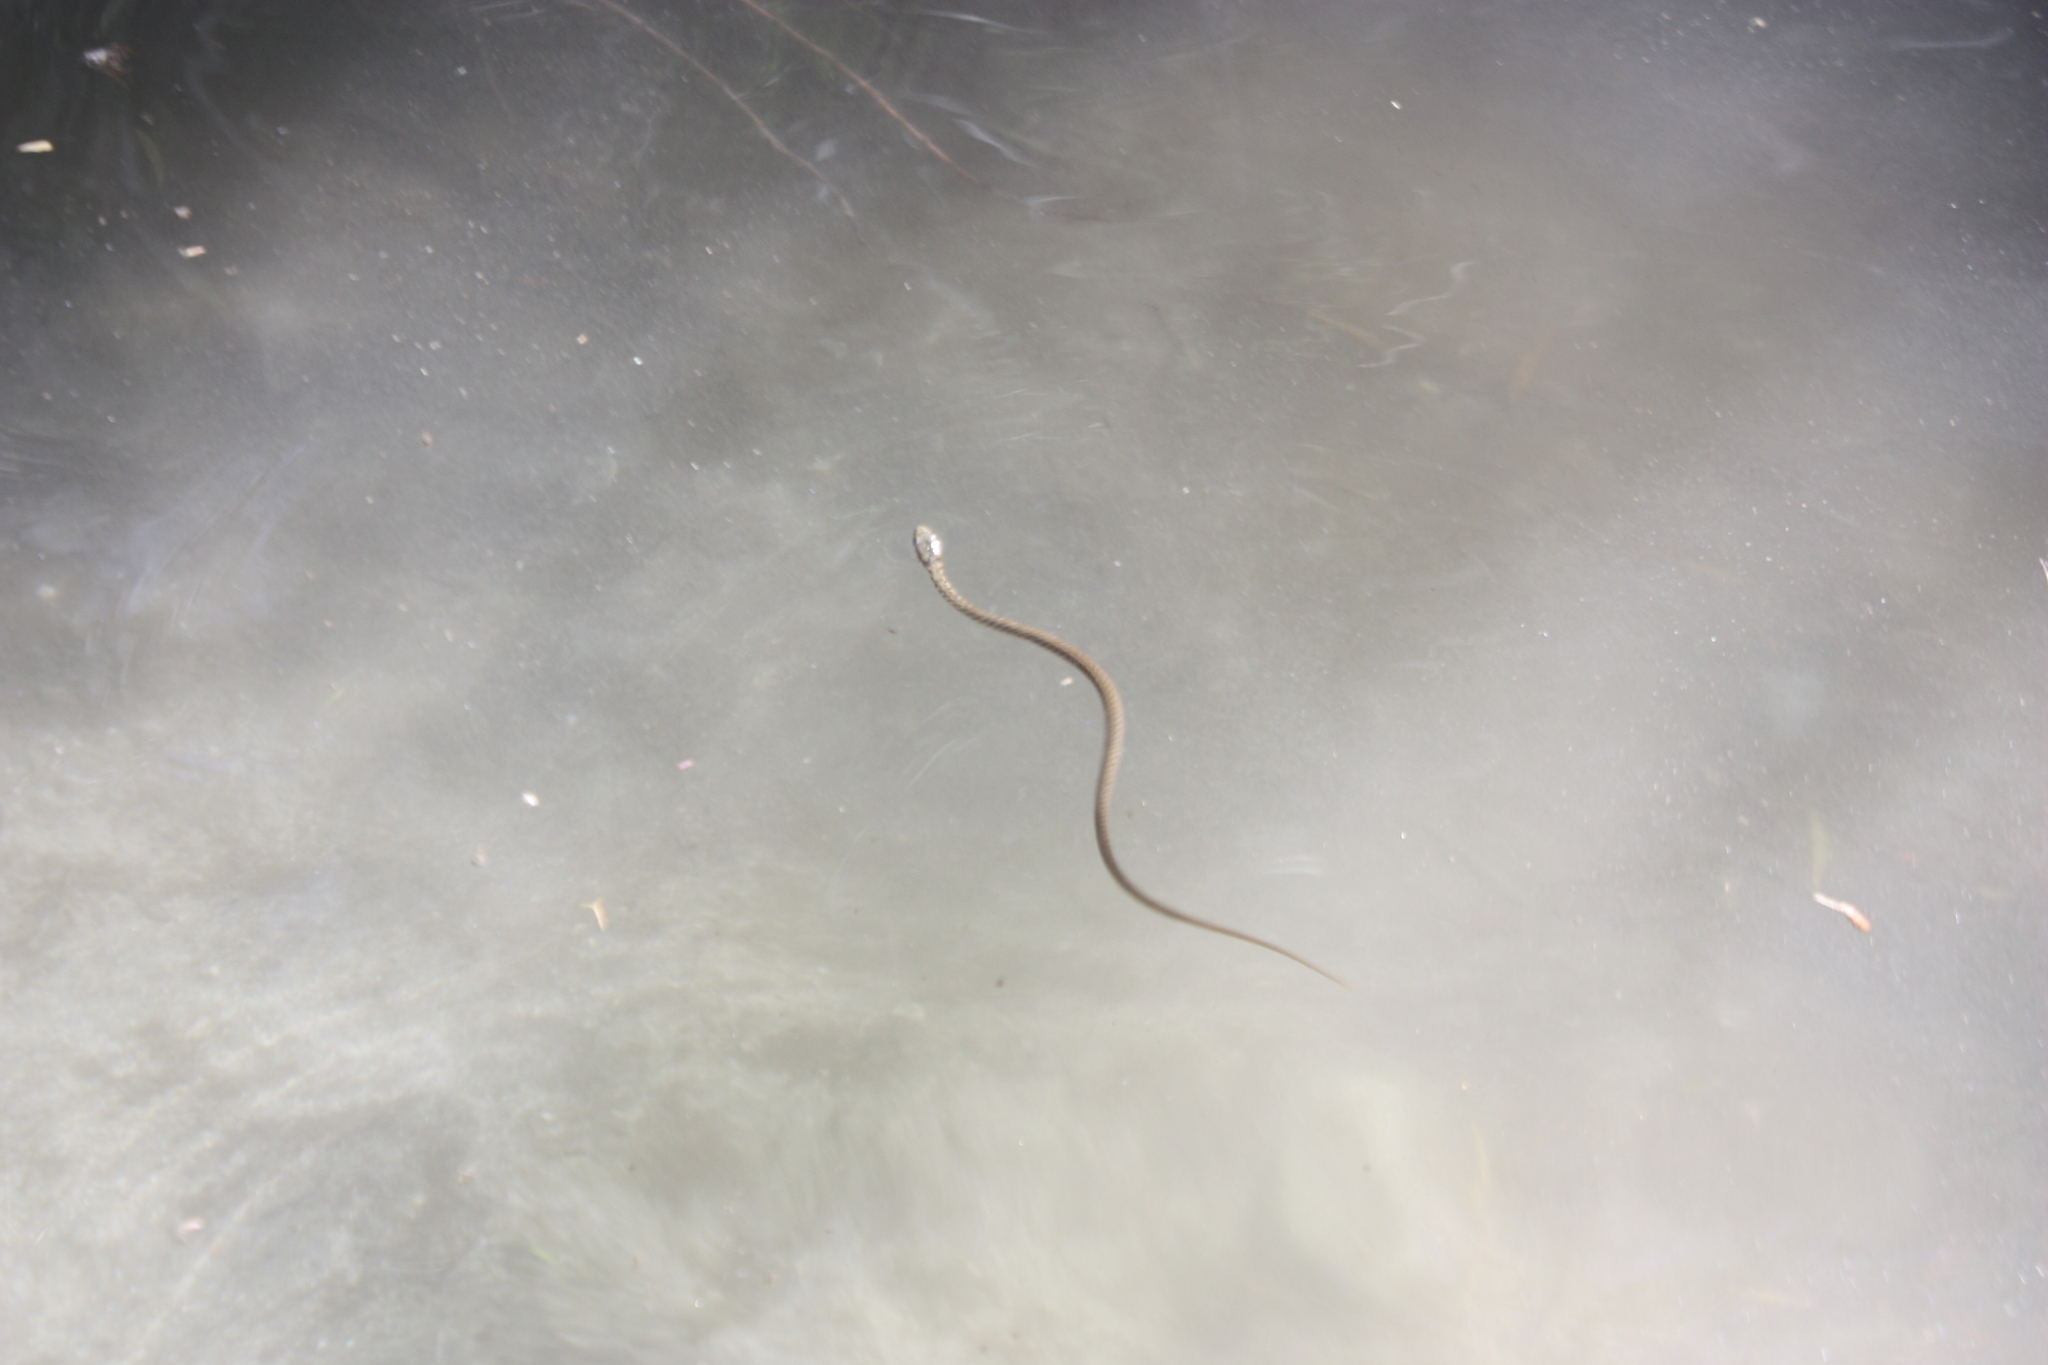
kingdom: Animalia
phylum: Chordata
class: Squamata
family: Colubridae
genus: Thamnophis
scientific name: Thamnophis hammondii
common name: Two-striped garter snake
